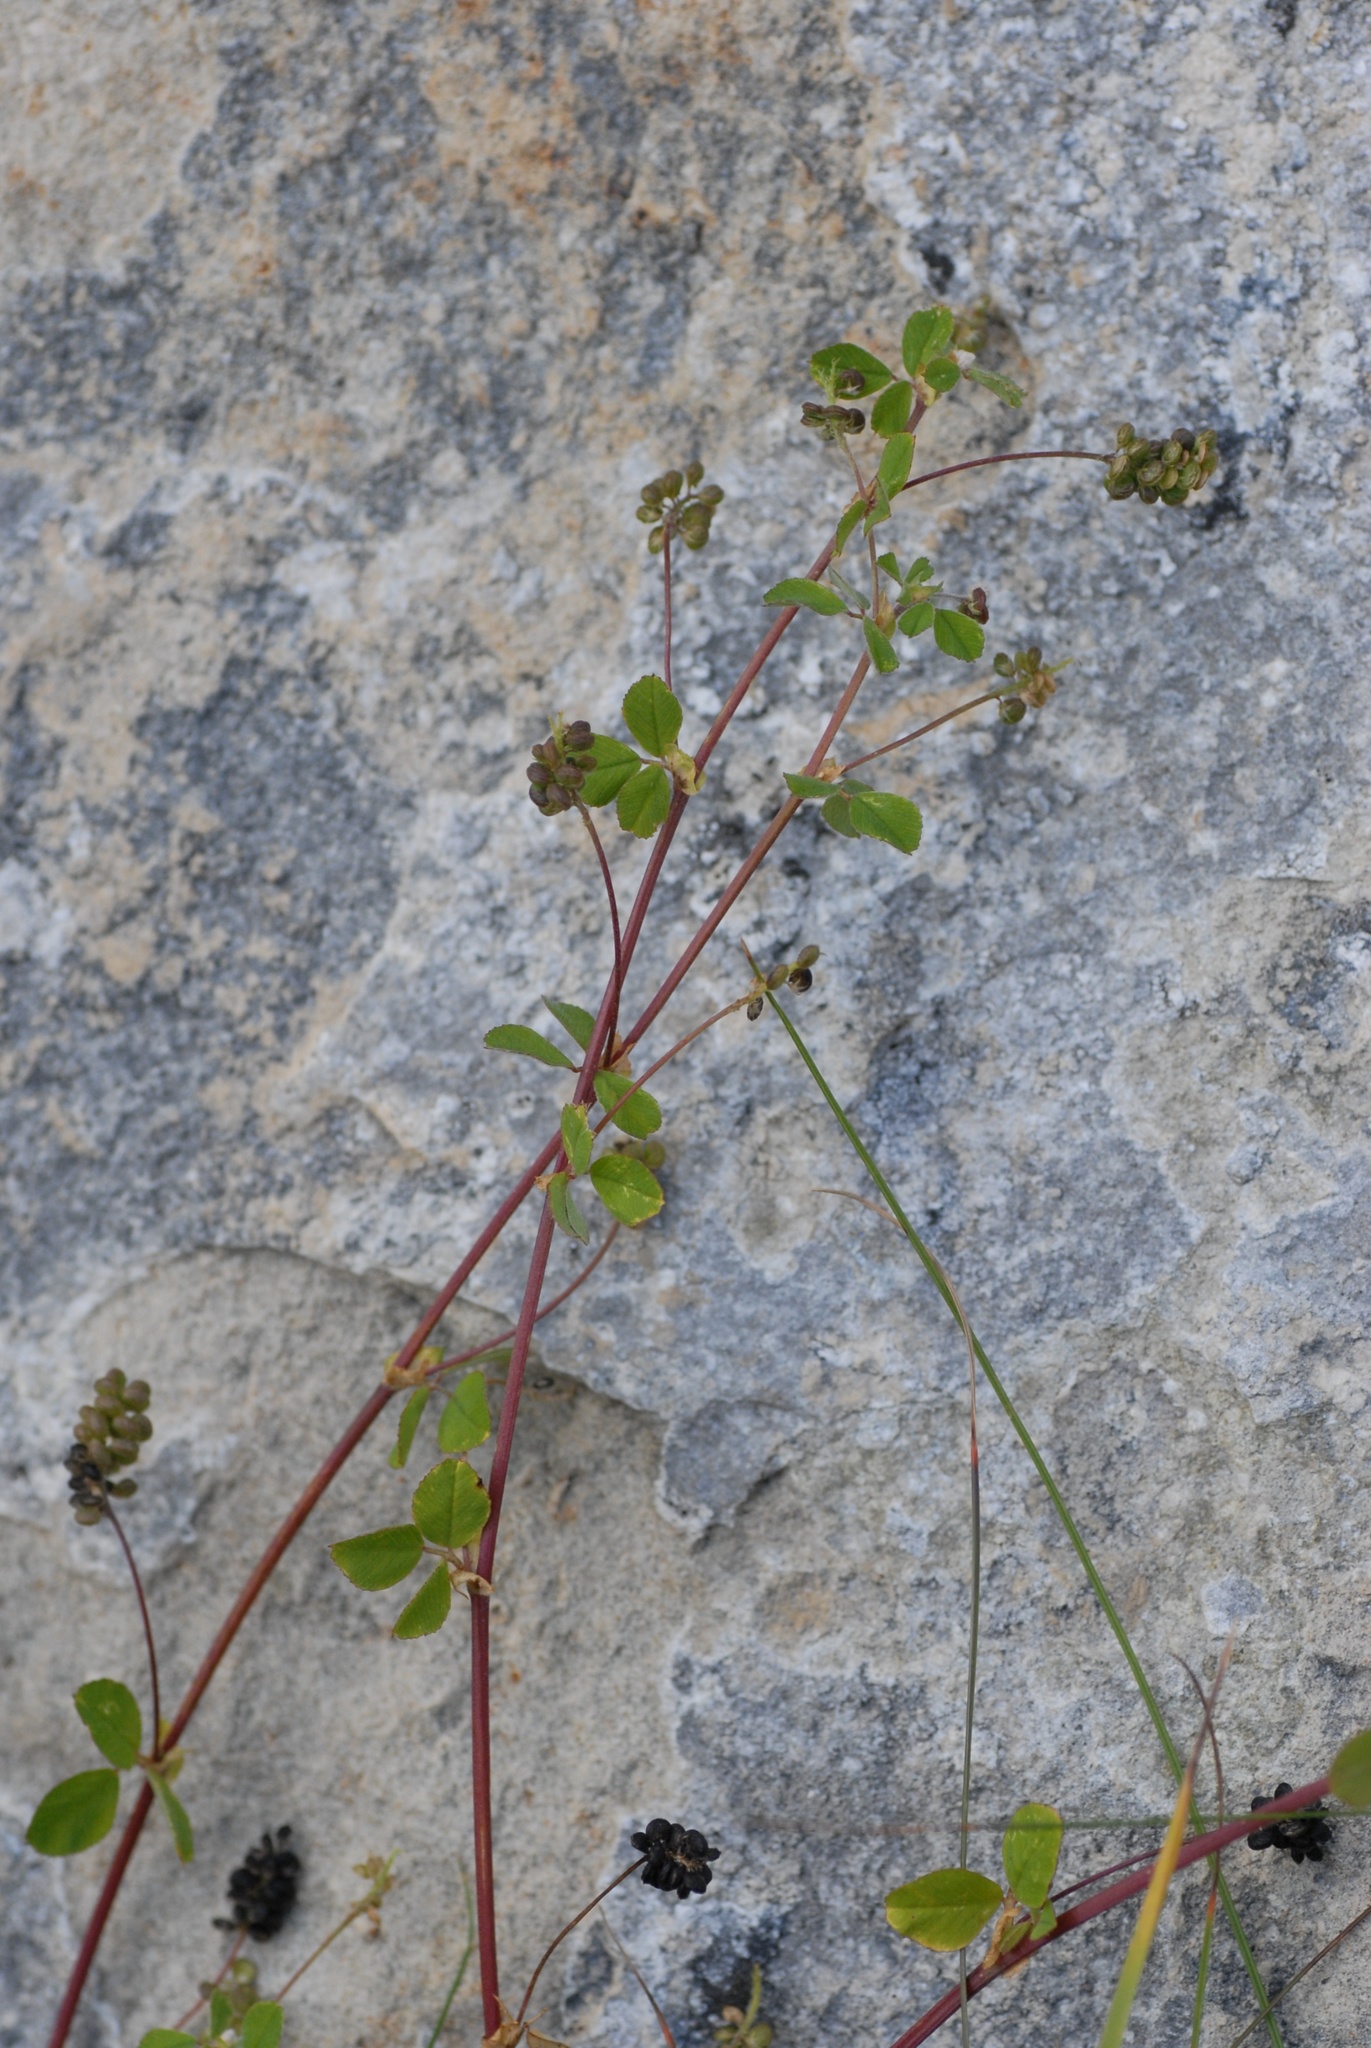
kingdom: Plantae
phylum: Tracheophyta
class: Magnoliopsida
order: Fabales
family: Fabaceae
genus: Medicago
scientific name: Medicago lupulina
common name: Black medick
